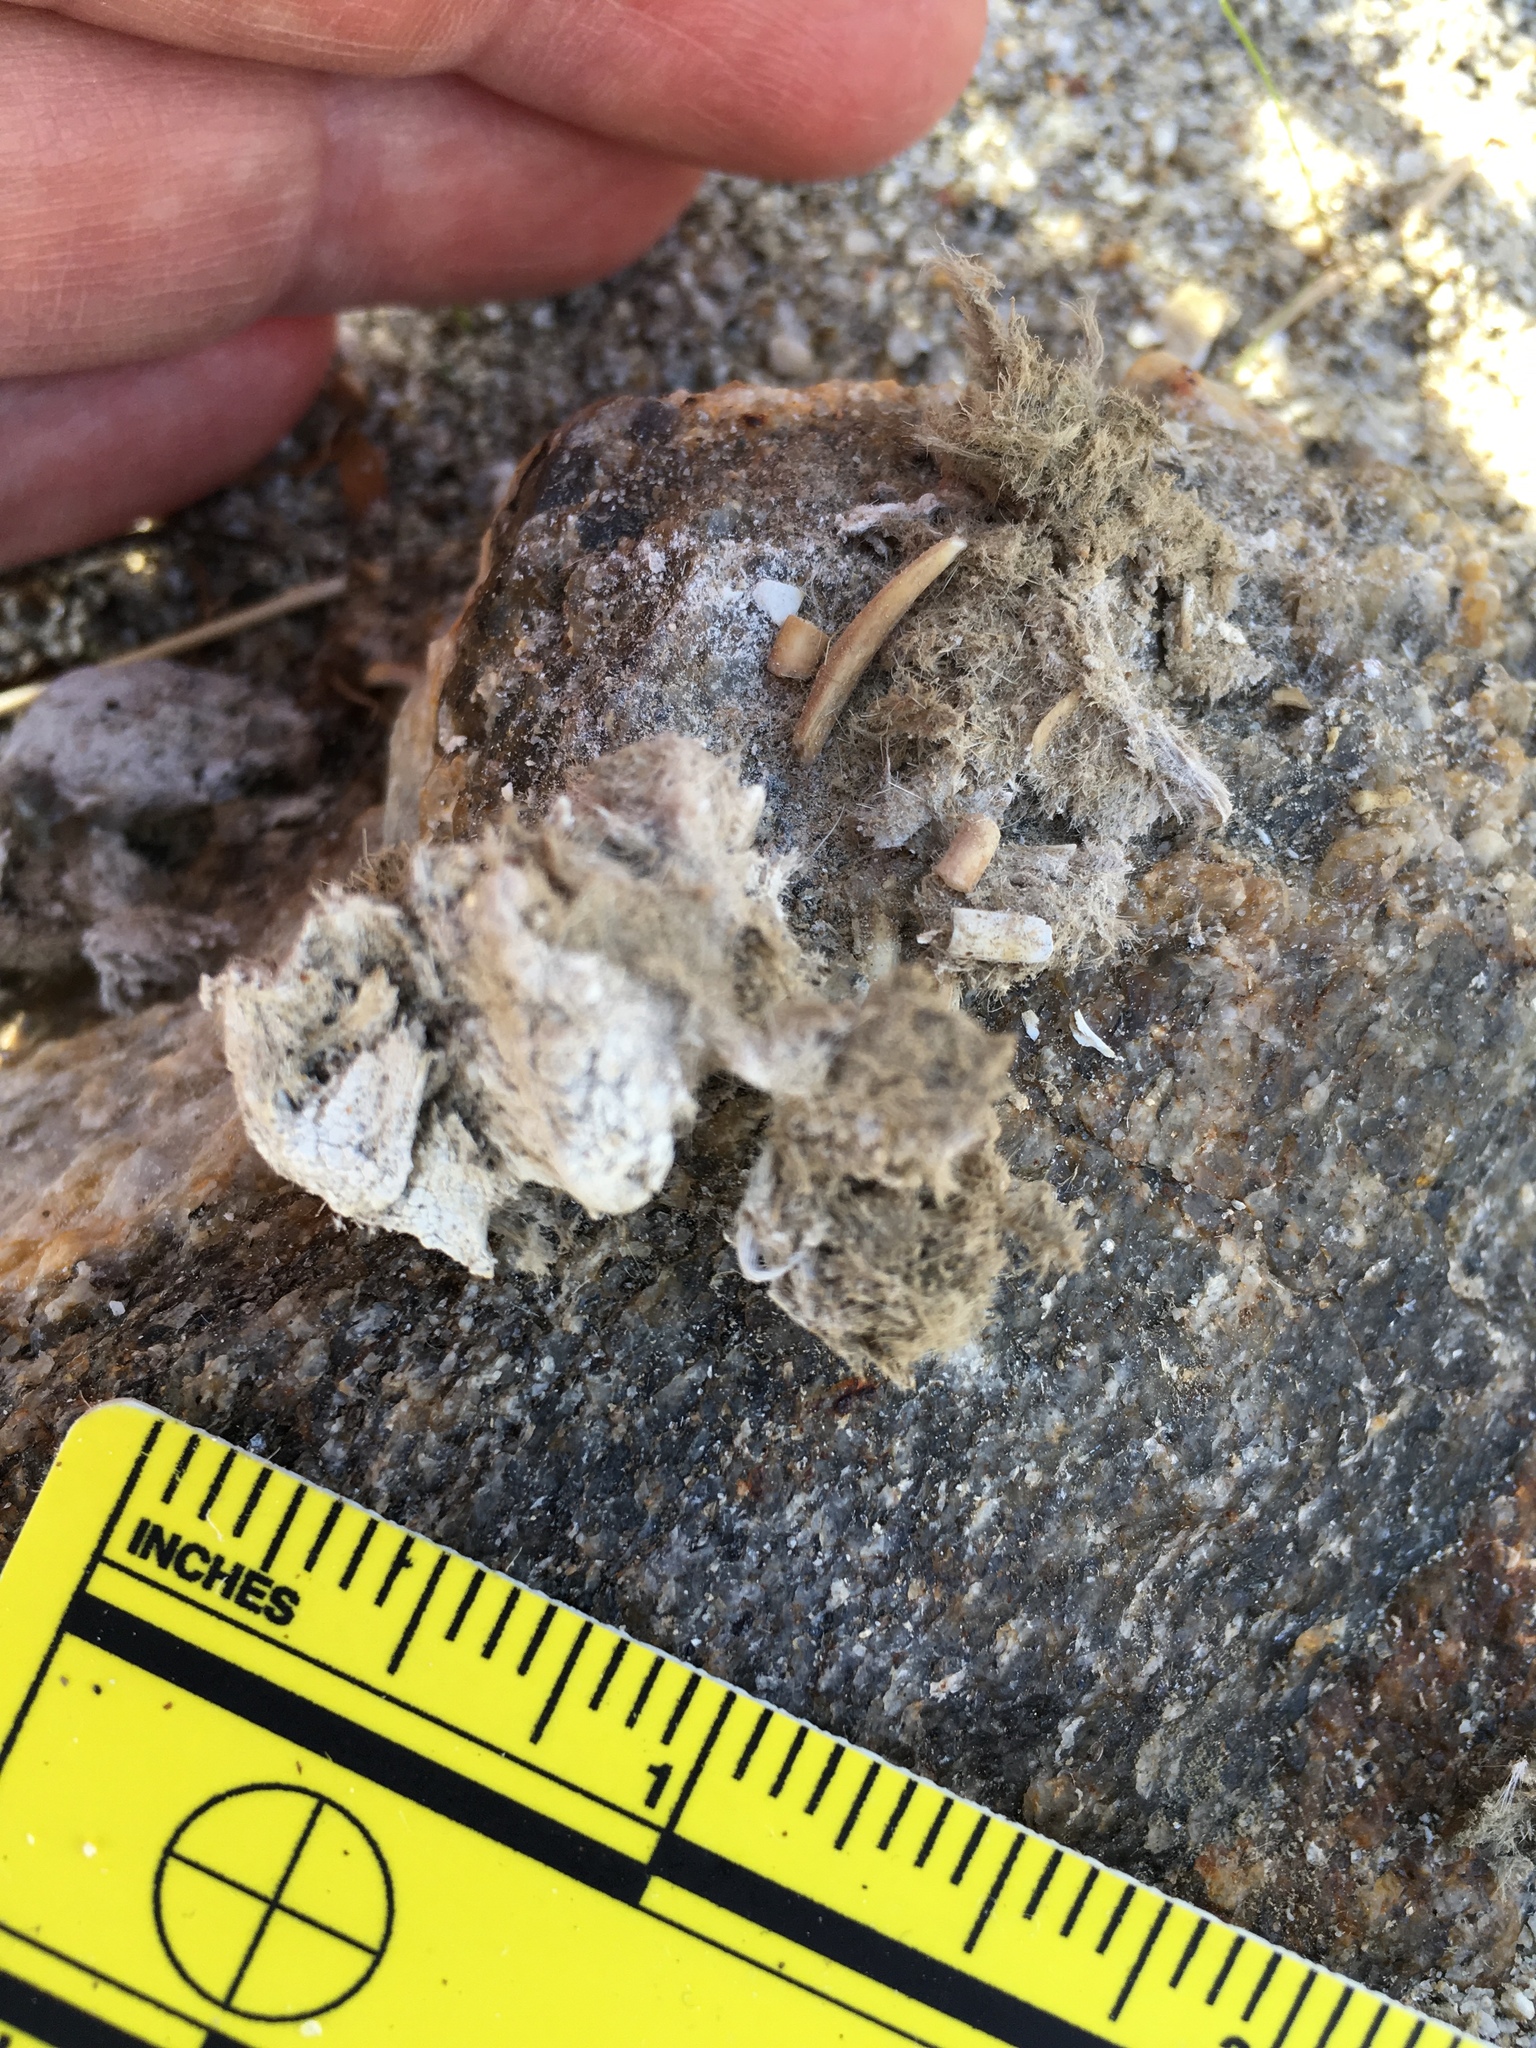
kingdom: Animalia
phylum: Chordata
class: Mammalia
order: Carnivora
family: Felidae
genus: Lynx
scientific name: Lynx rufus
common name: Bobcat
